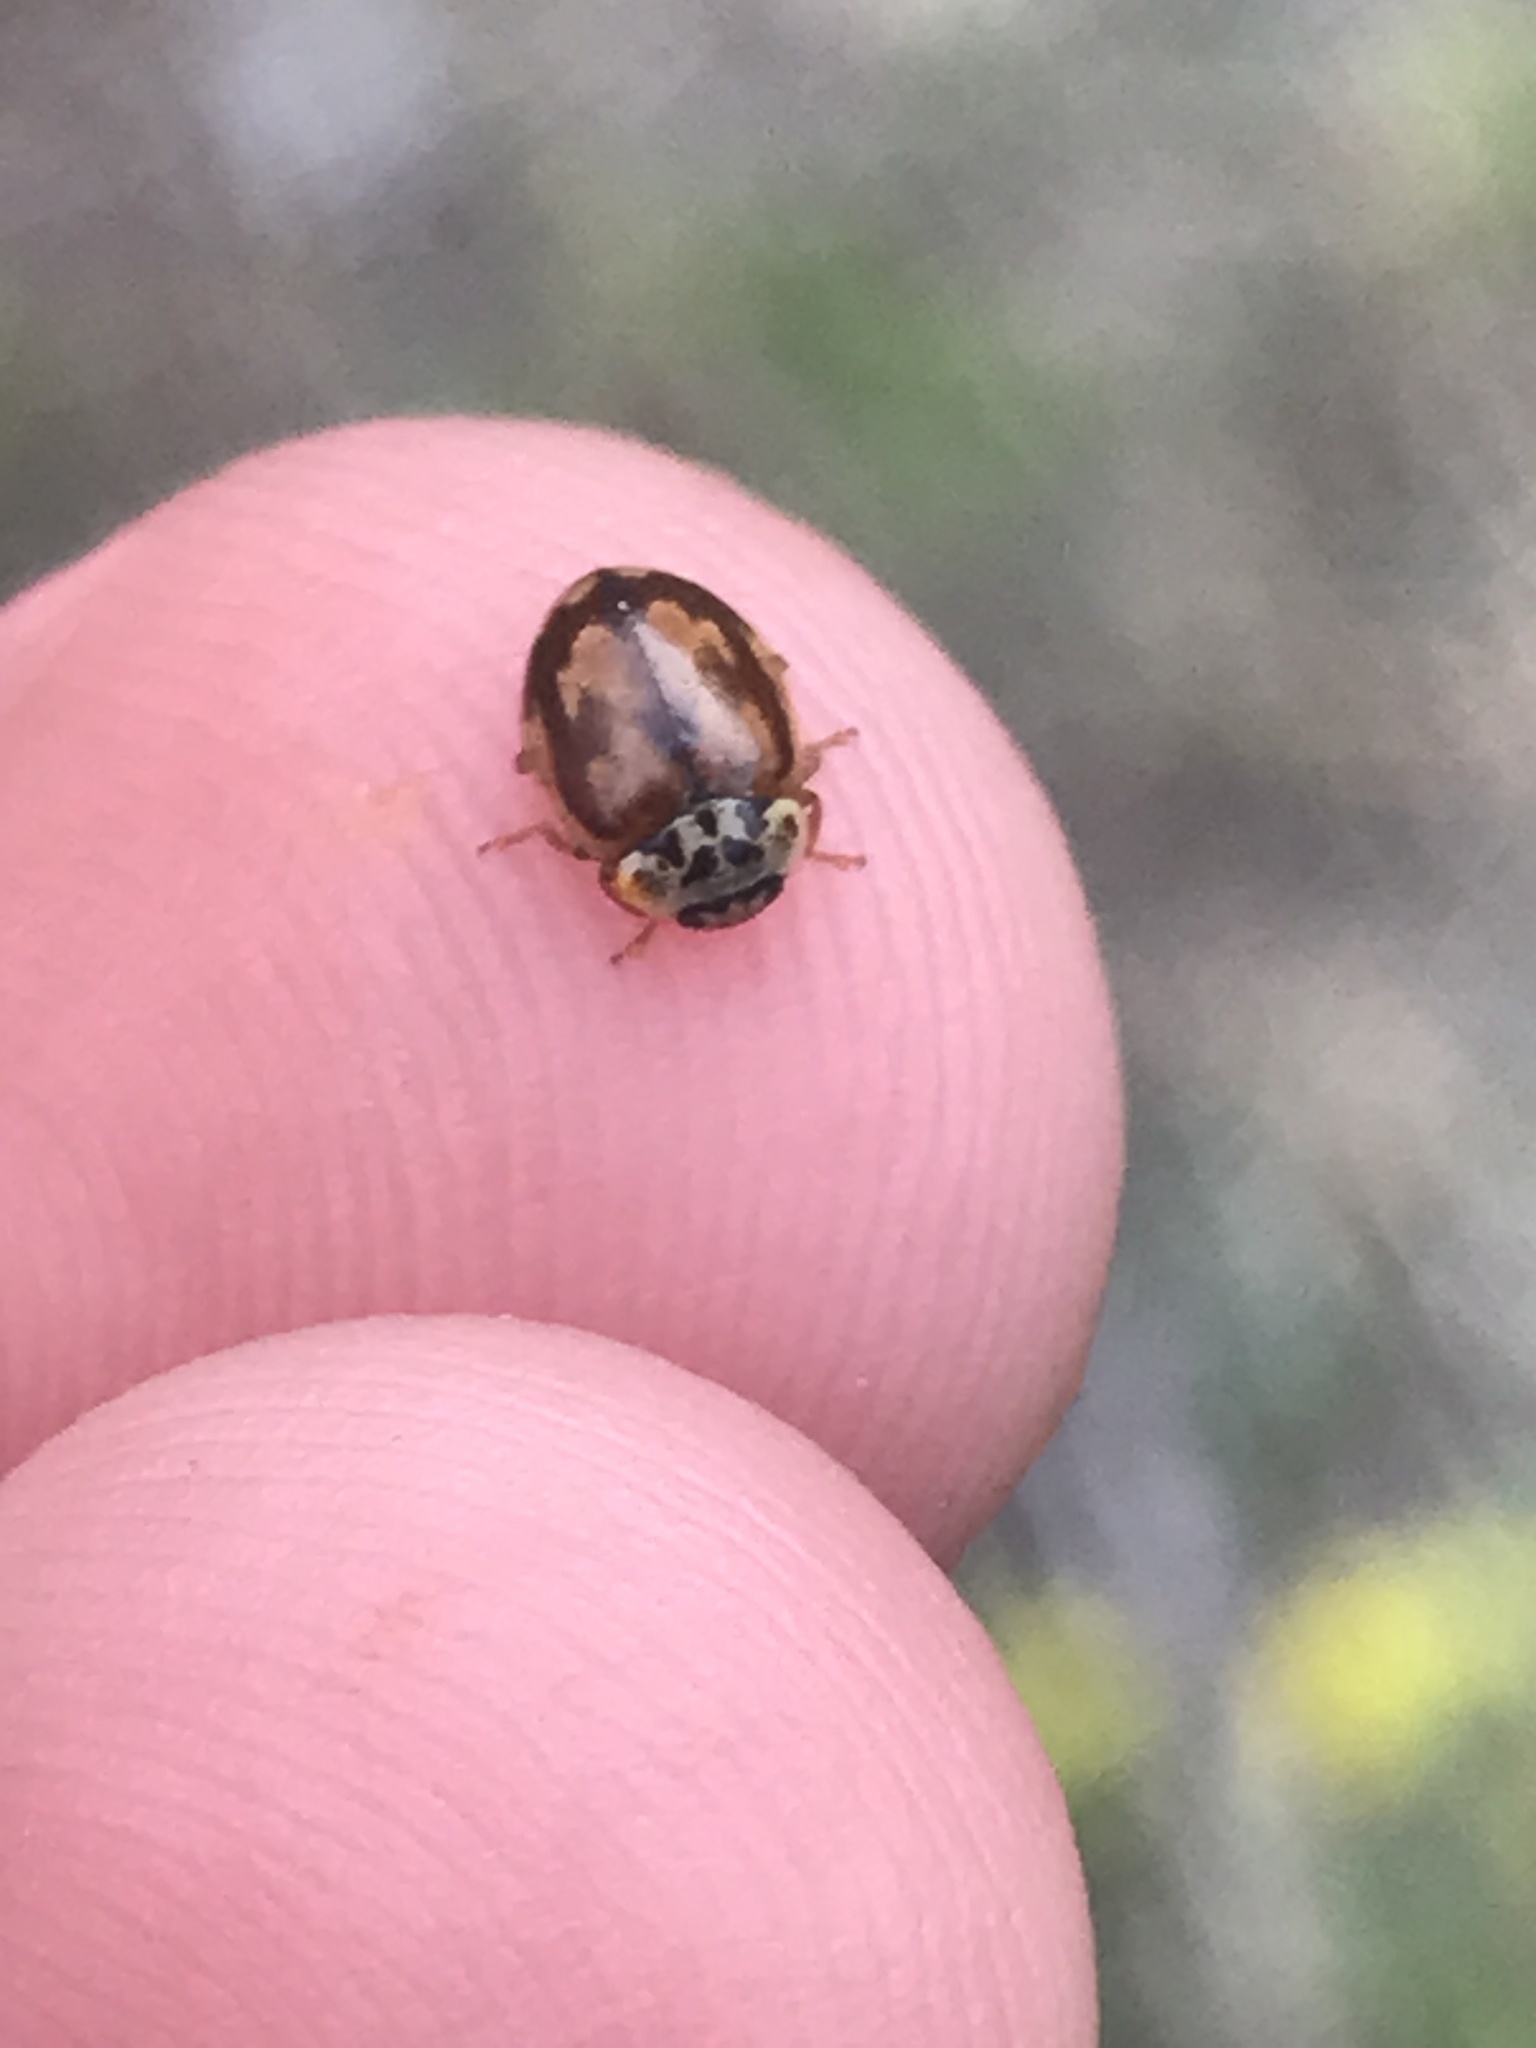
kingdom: Animalia
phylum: Arthropoda
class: Insecta
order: Coleoptera
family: Coccinellidae
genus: Mulsantina
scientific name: Mulsantina picta
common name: Painted ladybird
